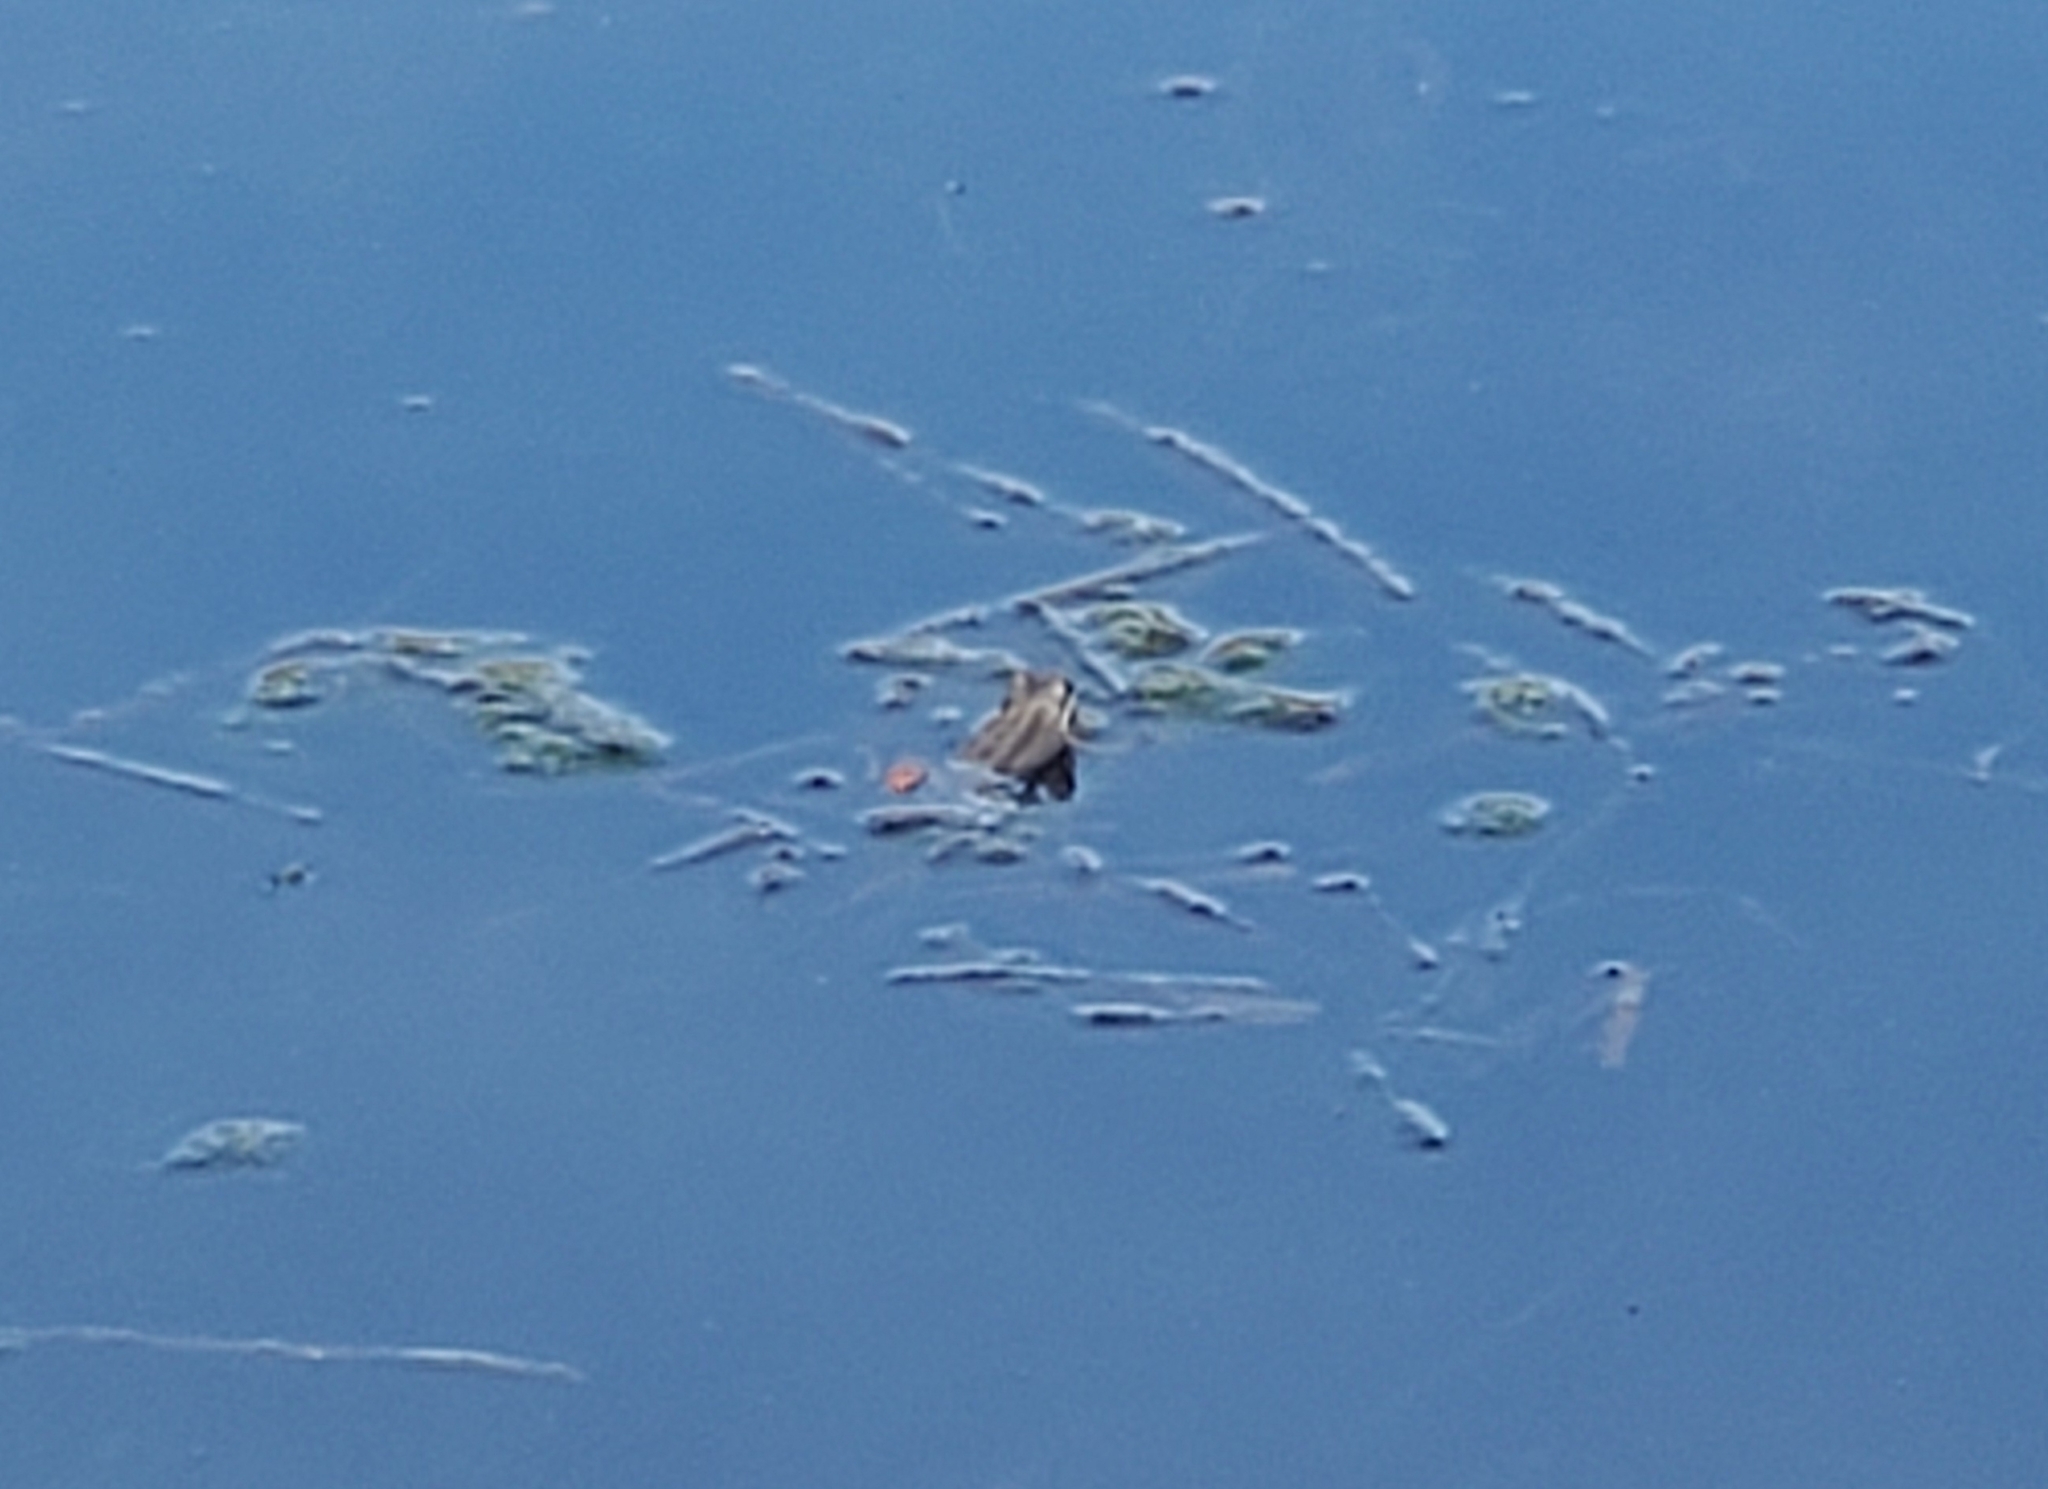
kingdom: Animalia
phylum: Chordata
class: Amphibia
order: Anura
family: Hylidae
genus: Pseudacris
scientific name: Pseudacris regilla
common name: Pacific chorus frog
